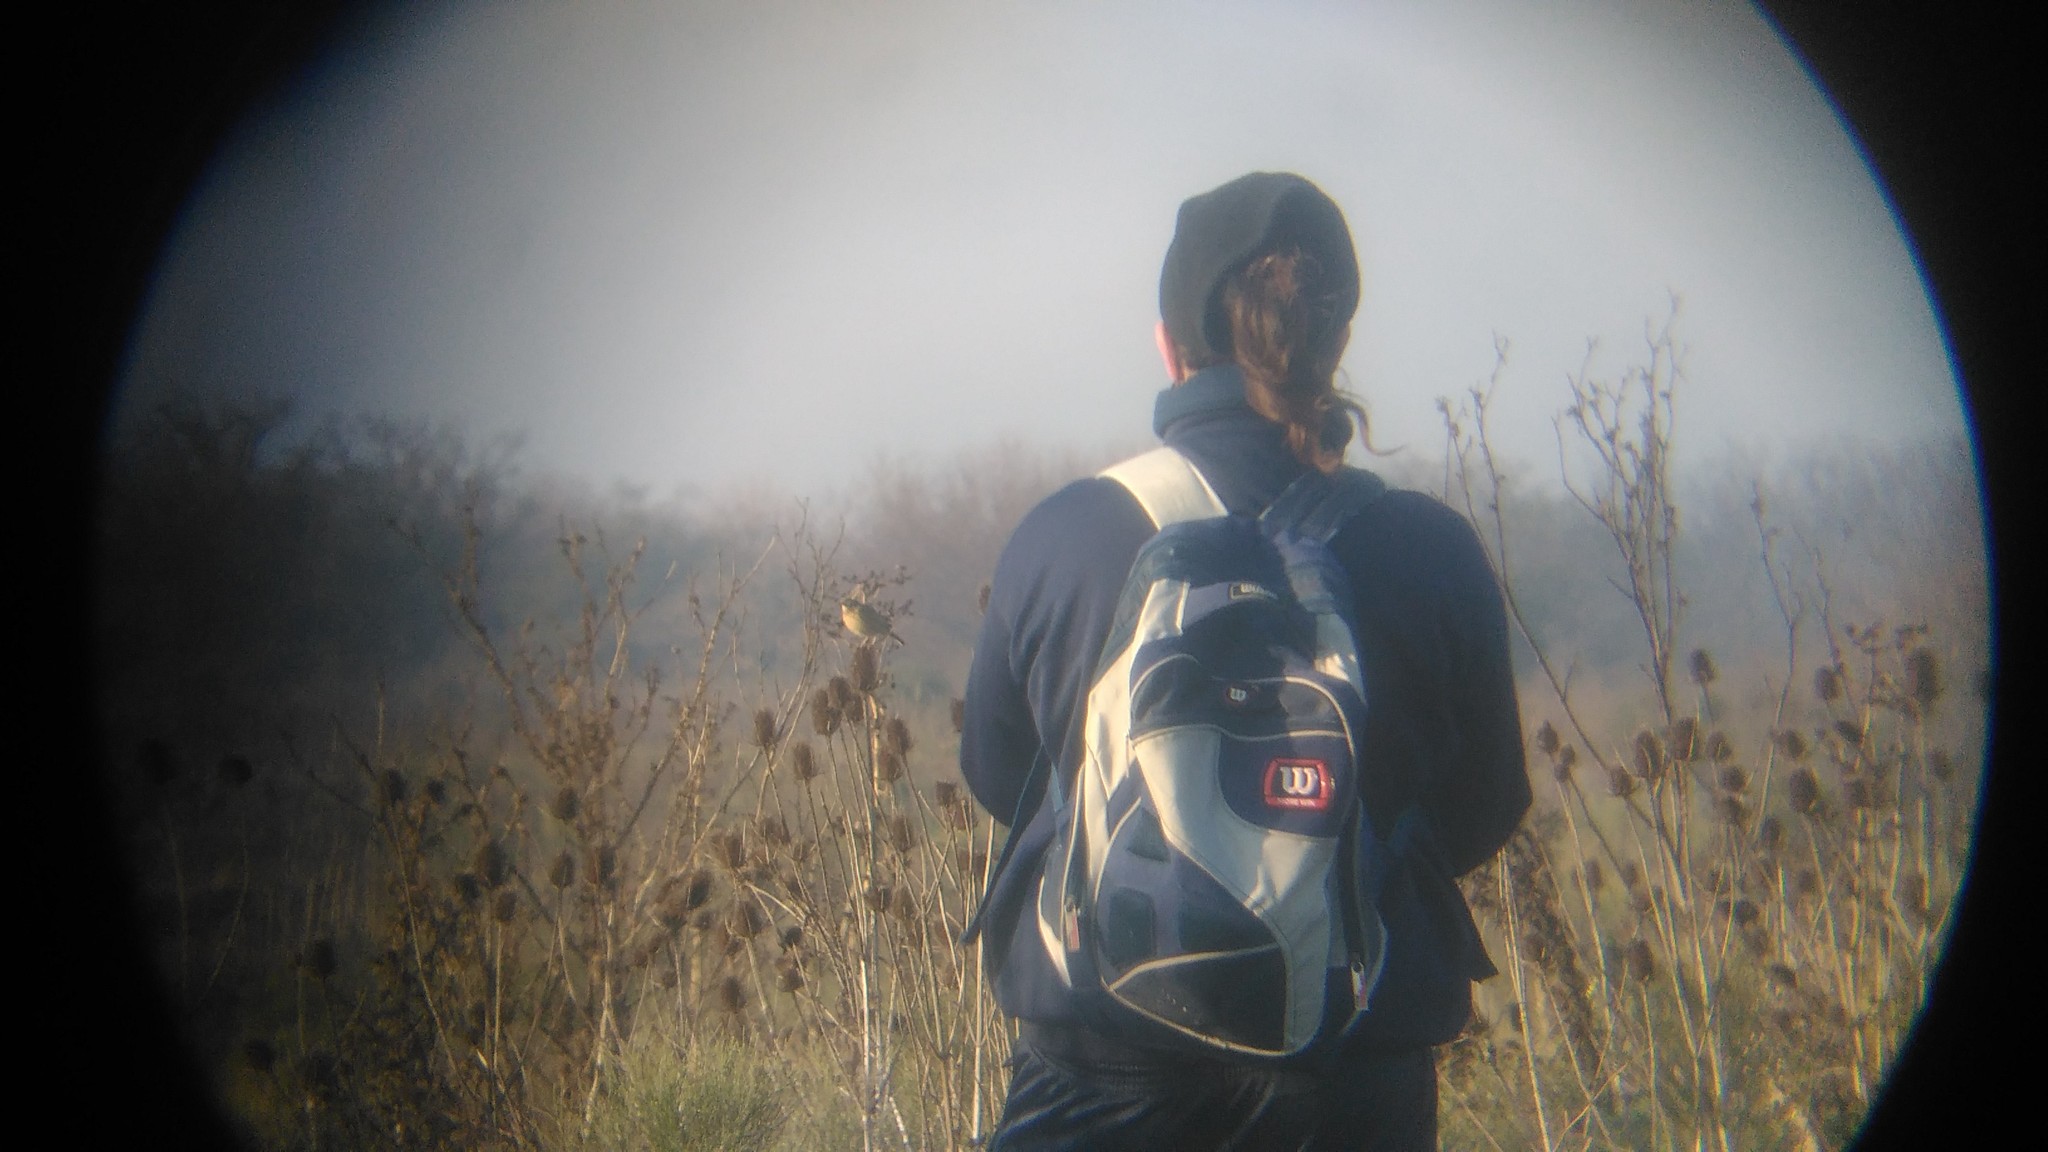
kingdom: Animalia
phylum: Chordata
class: Aves
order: Passeriformes
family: Motacillidae
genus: Anthus
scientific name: Anthus hellmayri
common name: Hellmayr's pipit
